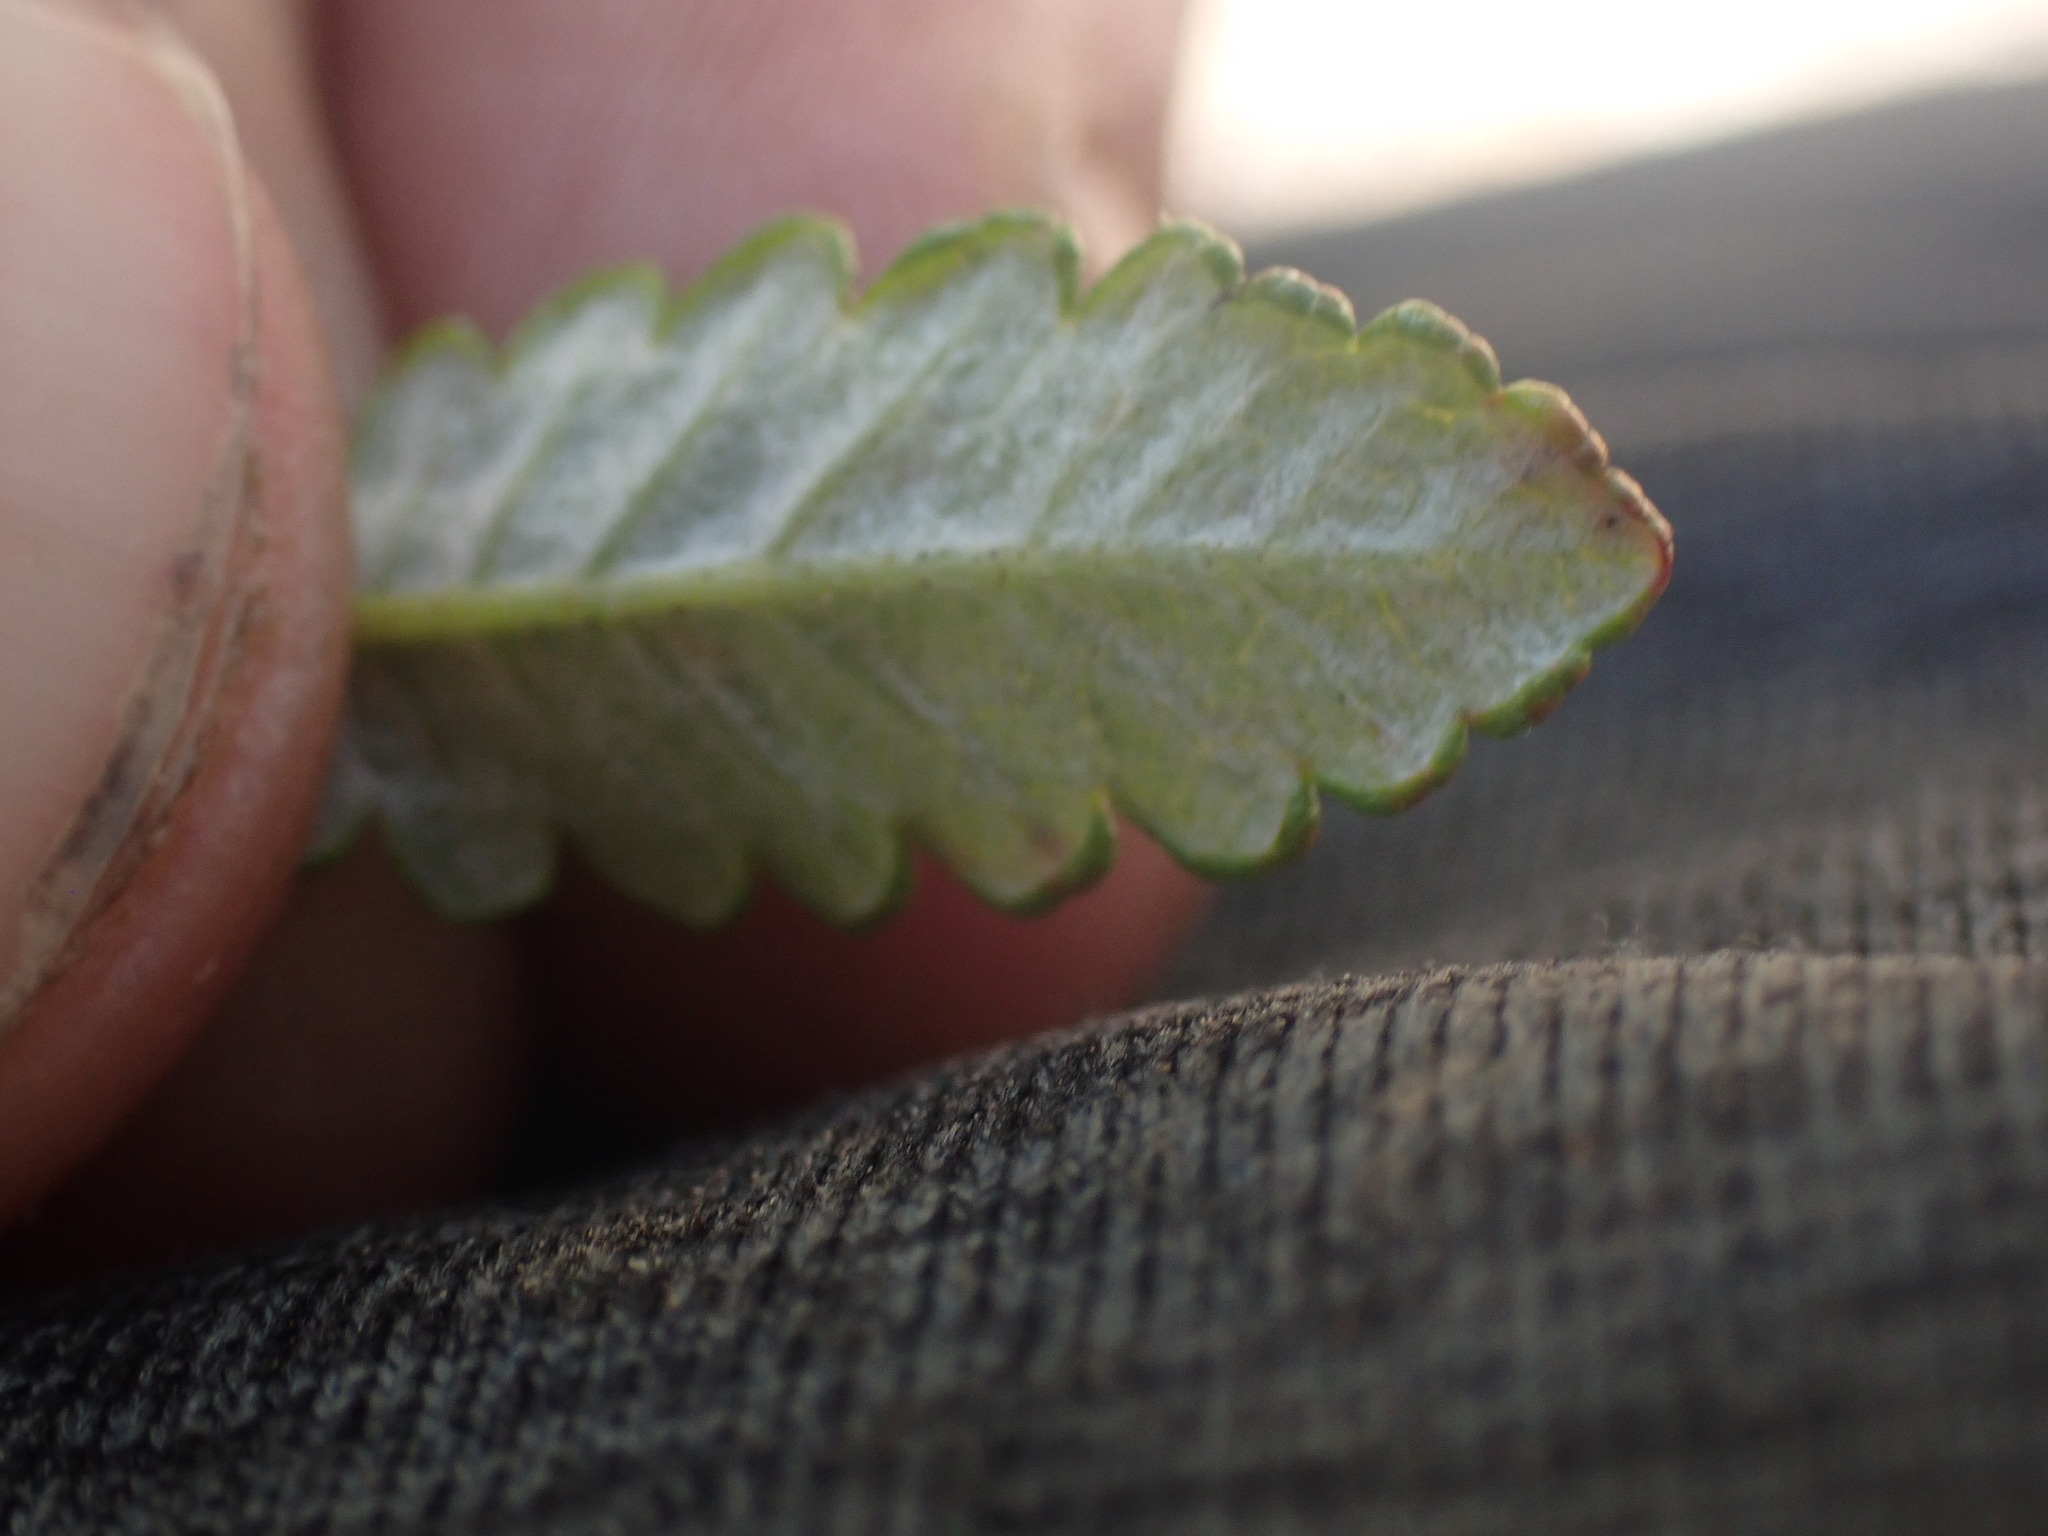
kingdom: Plantae
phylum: Tracheophyta
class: Magnoliopsida
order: Rosales
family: Rosaceae
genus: Dryas
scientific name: Dryas octopetala
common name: Eight-petal mountain-avens
